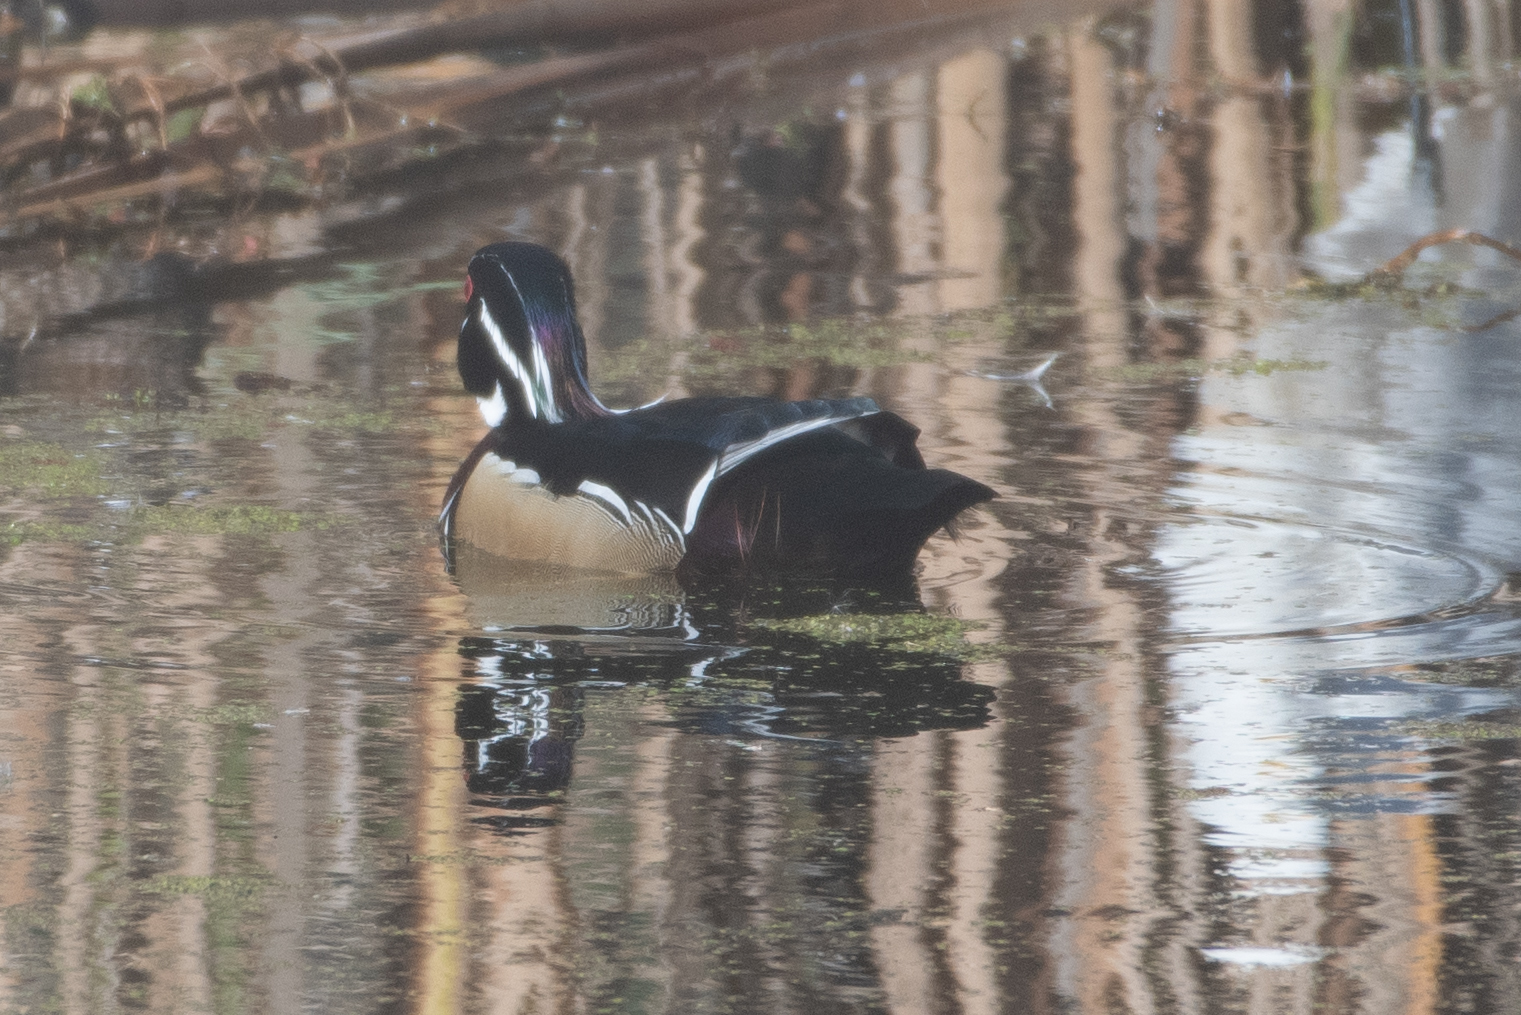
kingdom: Animalia
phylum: Chordata
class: Aves
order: Anseriformes
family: Anatidae
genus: Aix
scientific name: Aix sponsa
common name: Wood duck
